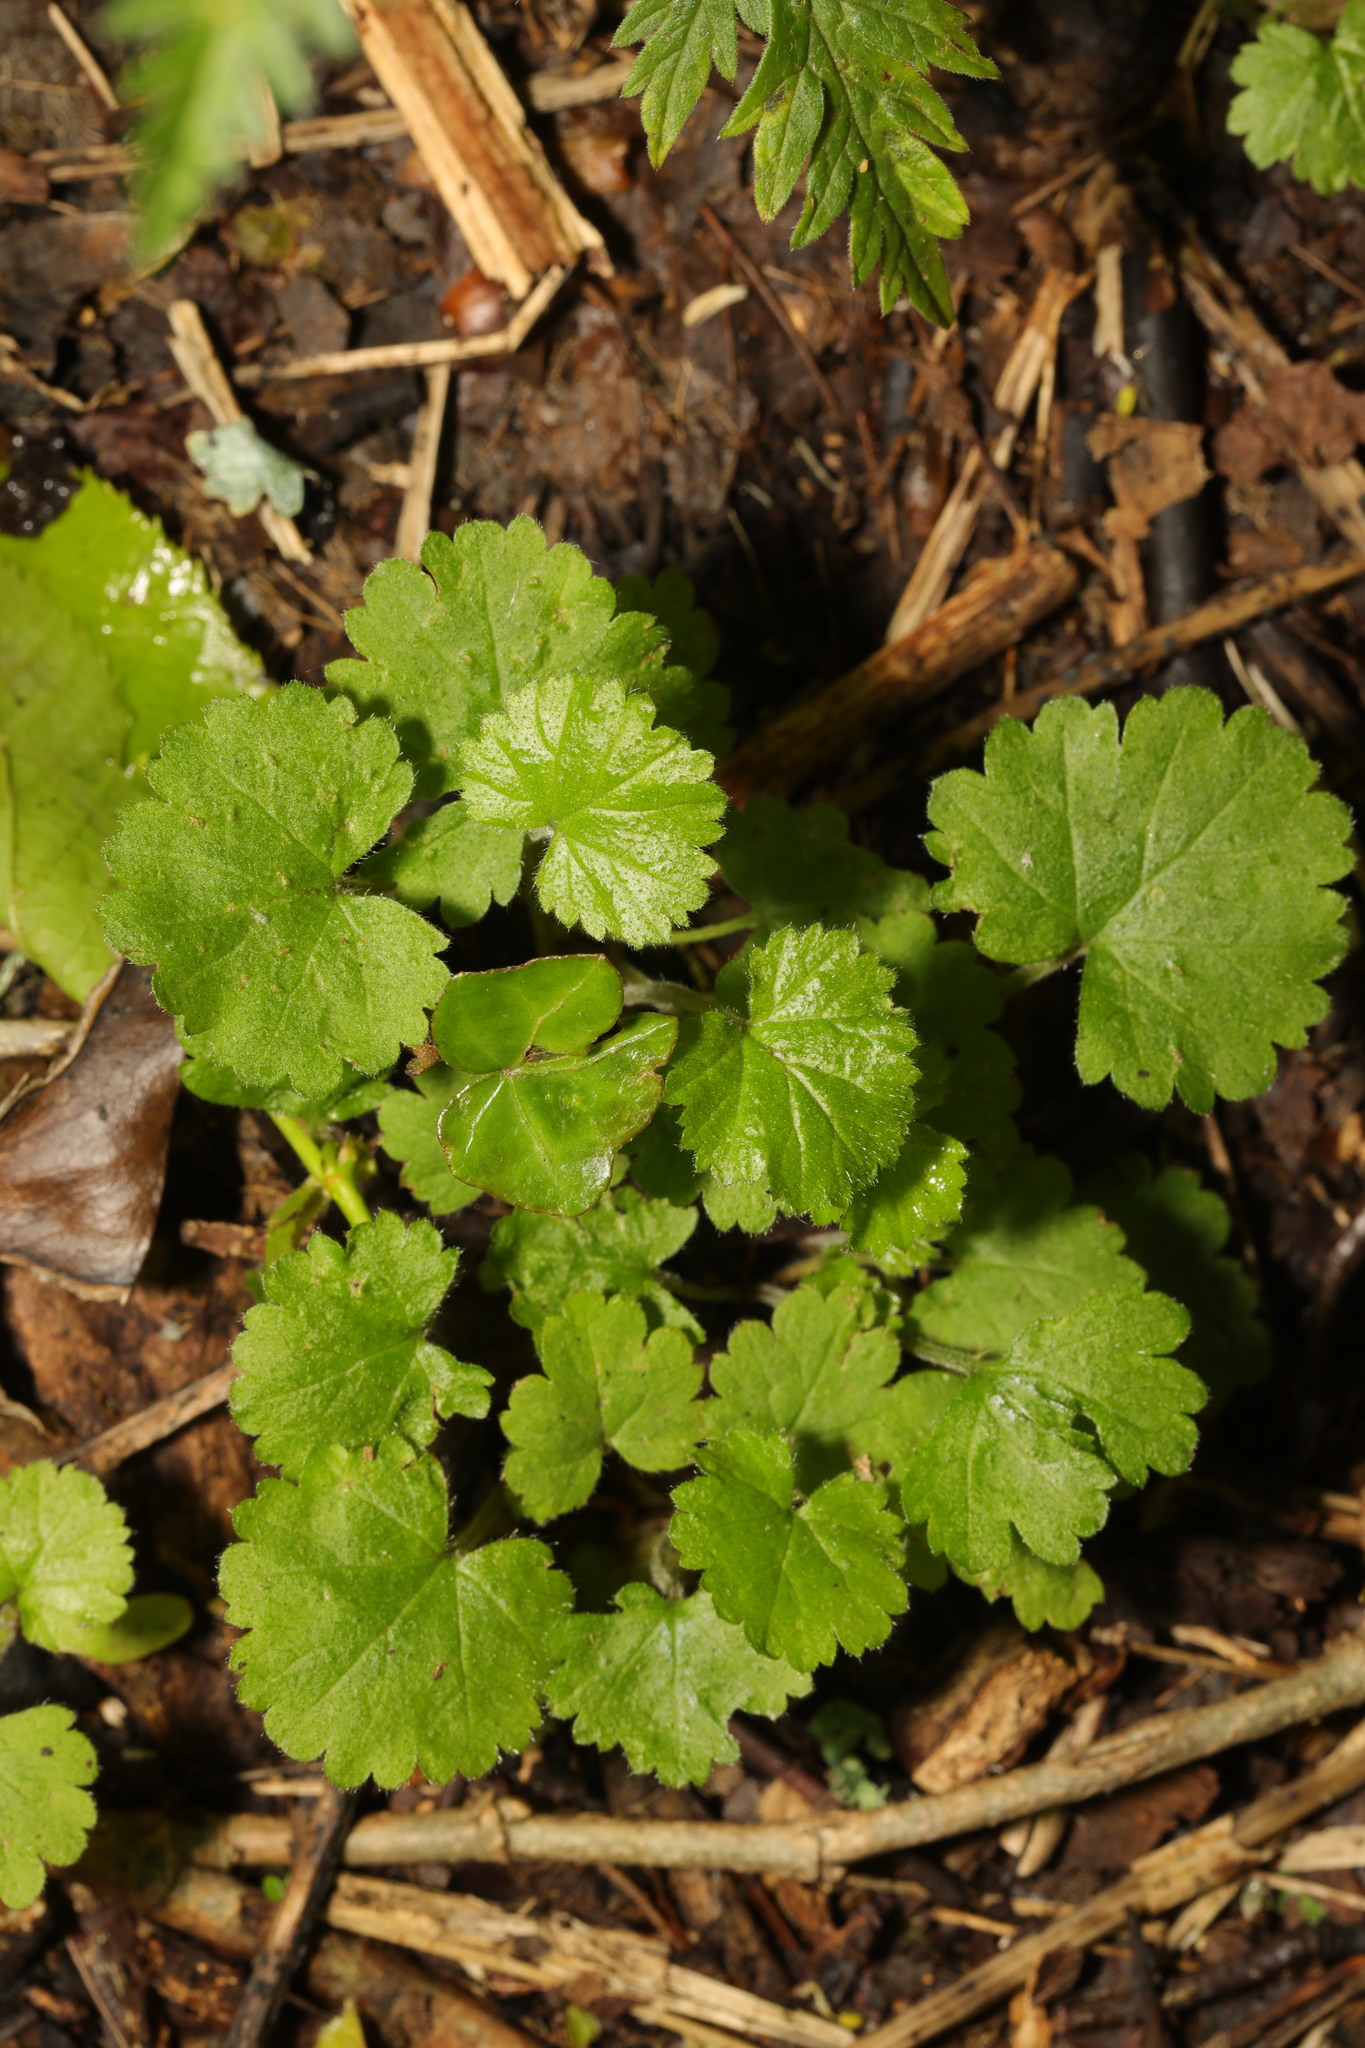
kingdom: Plantae
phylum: Tracheophyta
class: Magnoliopsida
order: Rosales
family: Rosaceae
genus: Geum
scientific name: Geum urbanum
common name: Wood avens
